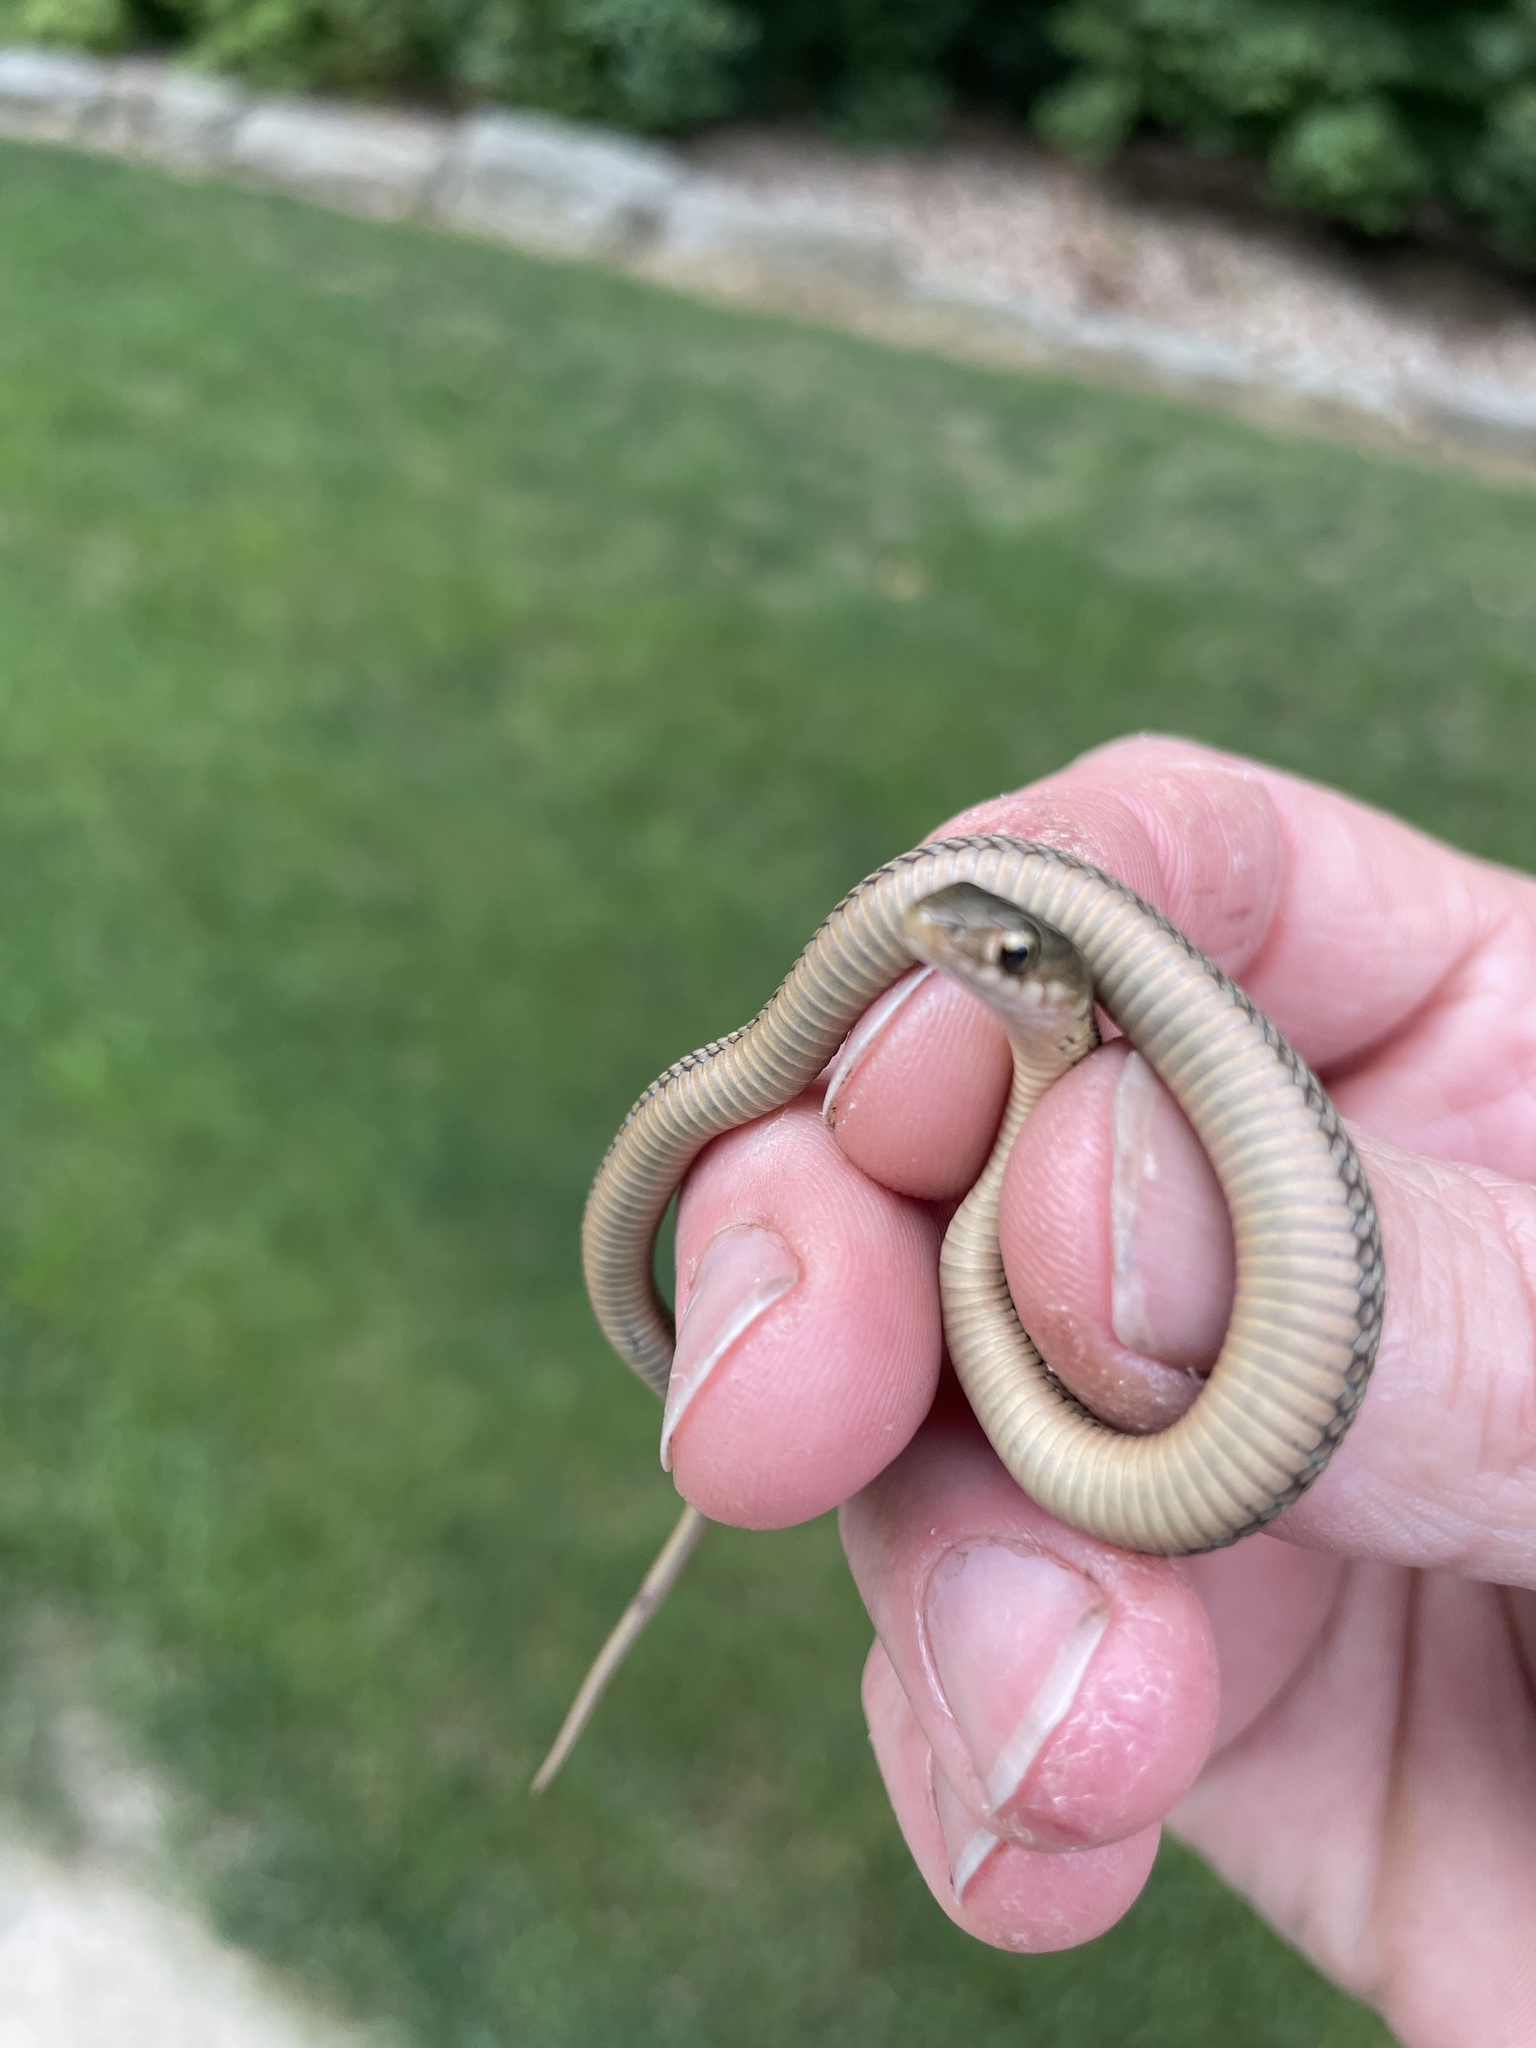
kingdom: Animalia
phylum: Chordata
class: Squamata
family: Colubridae
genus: Thamnophis
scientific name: Thamnophis sirtalis
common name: Common garter snake
